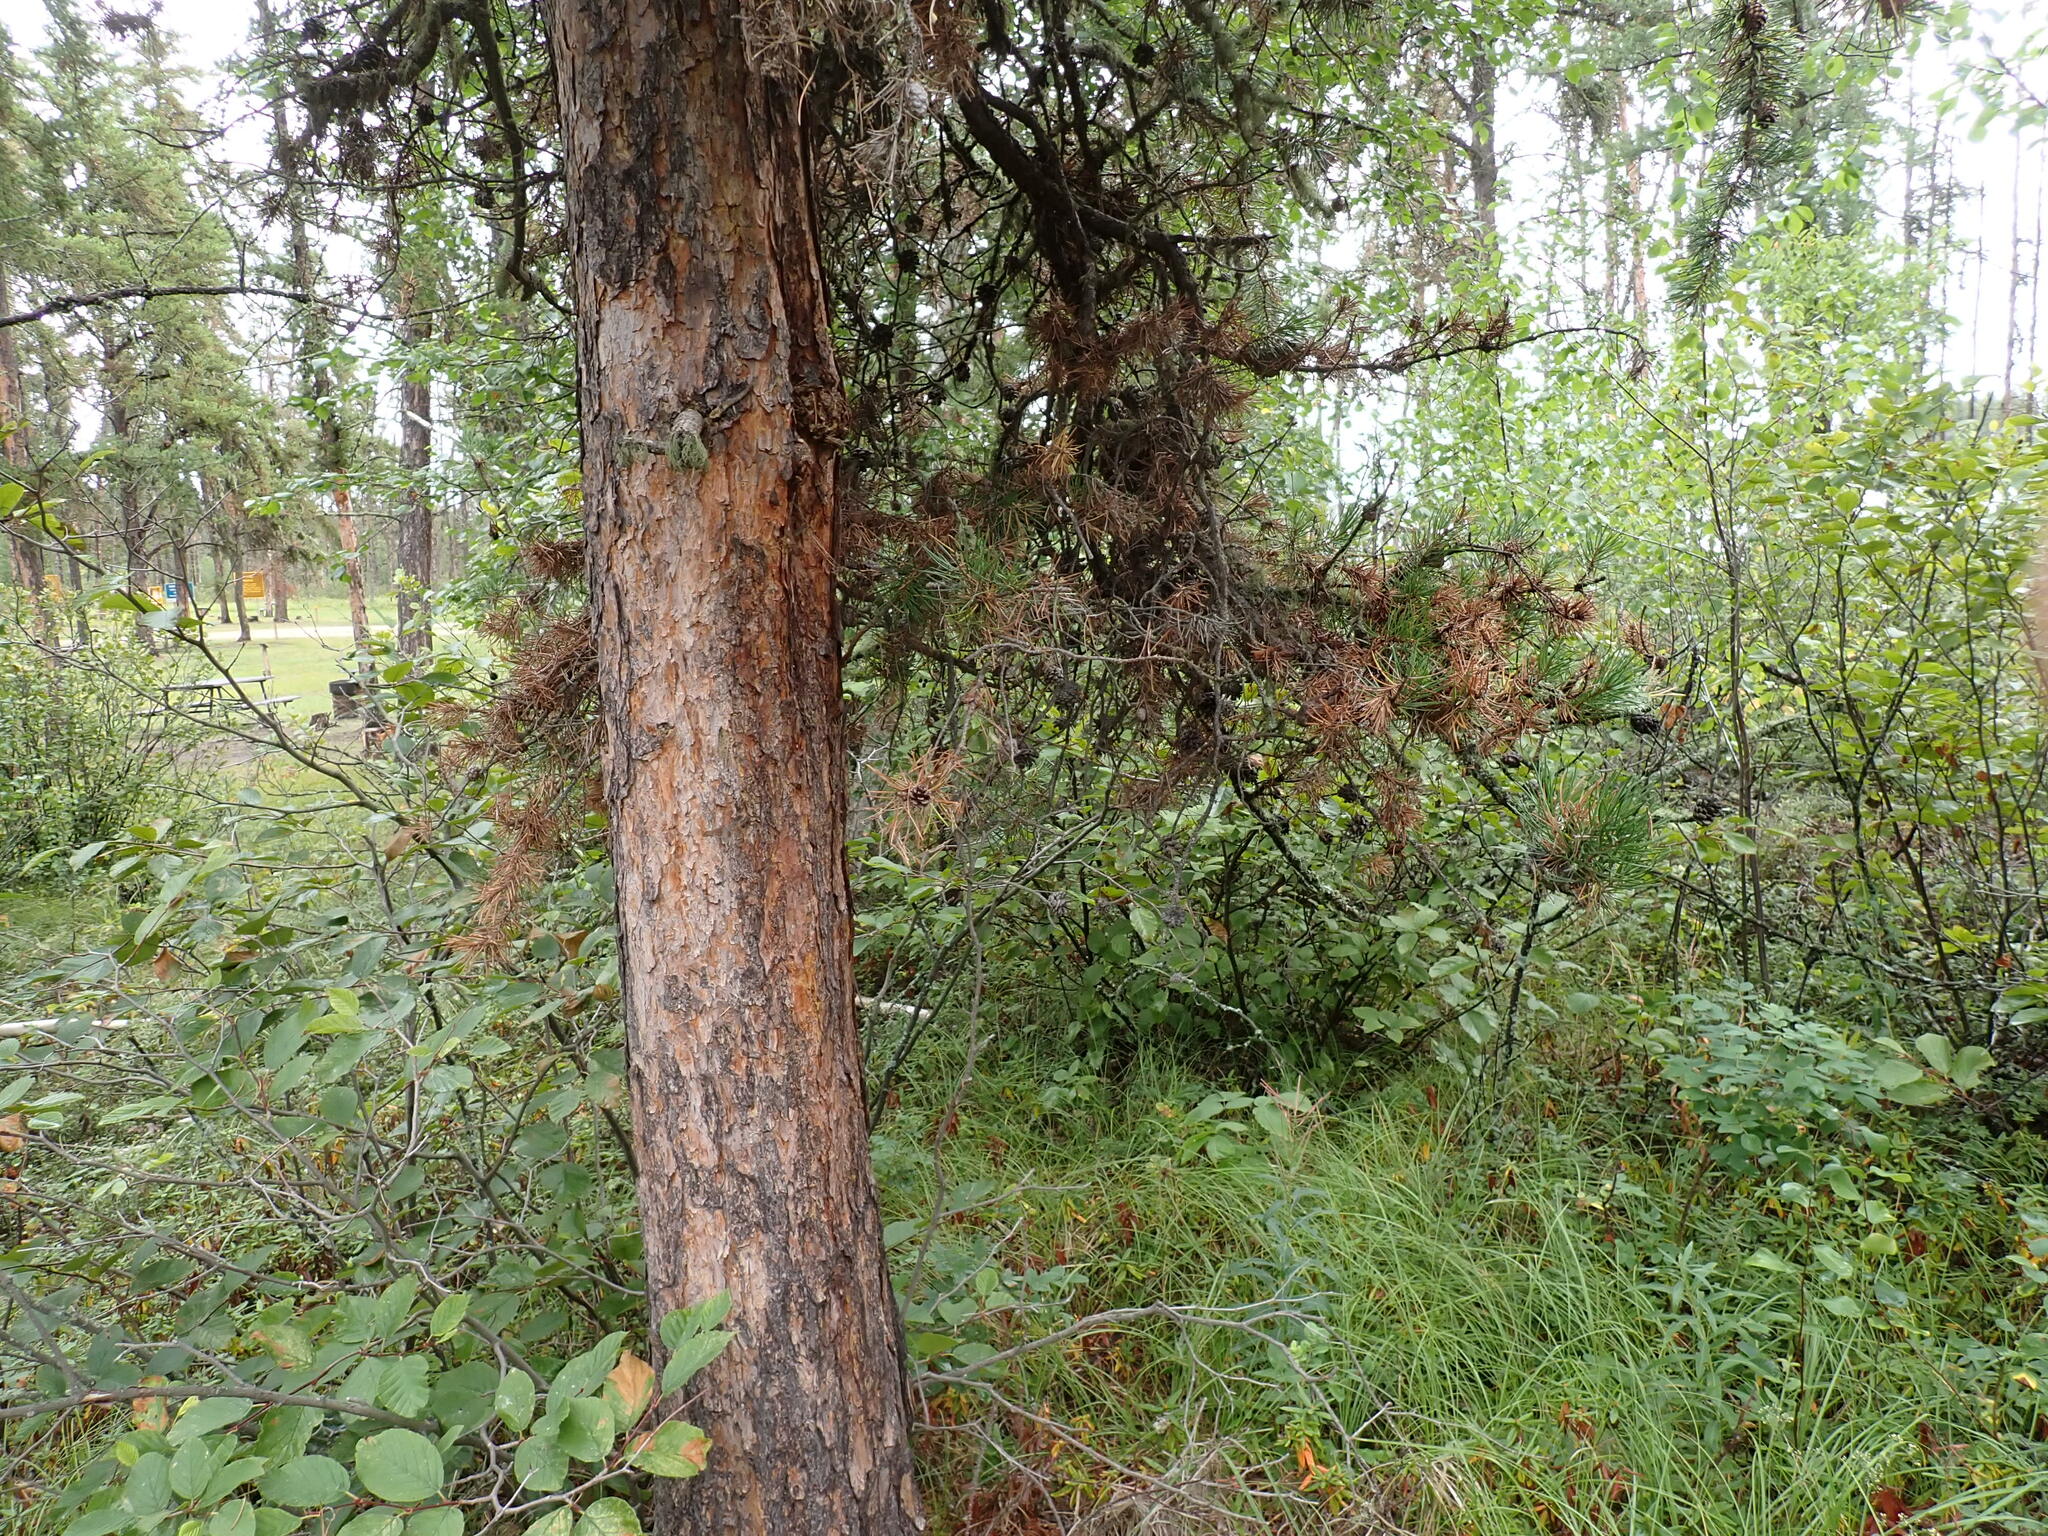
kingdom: Plantae
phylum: Tracheophyta
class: Pinopsida
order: Pinales
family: Pinaceae
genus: Pinus
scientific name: Pinus banksiana
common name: Jack pine
